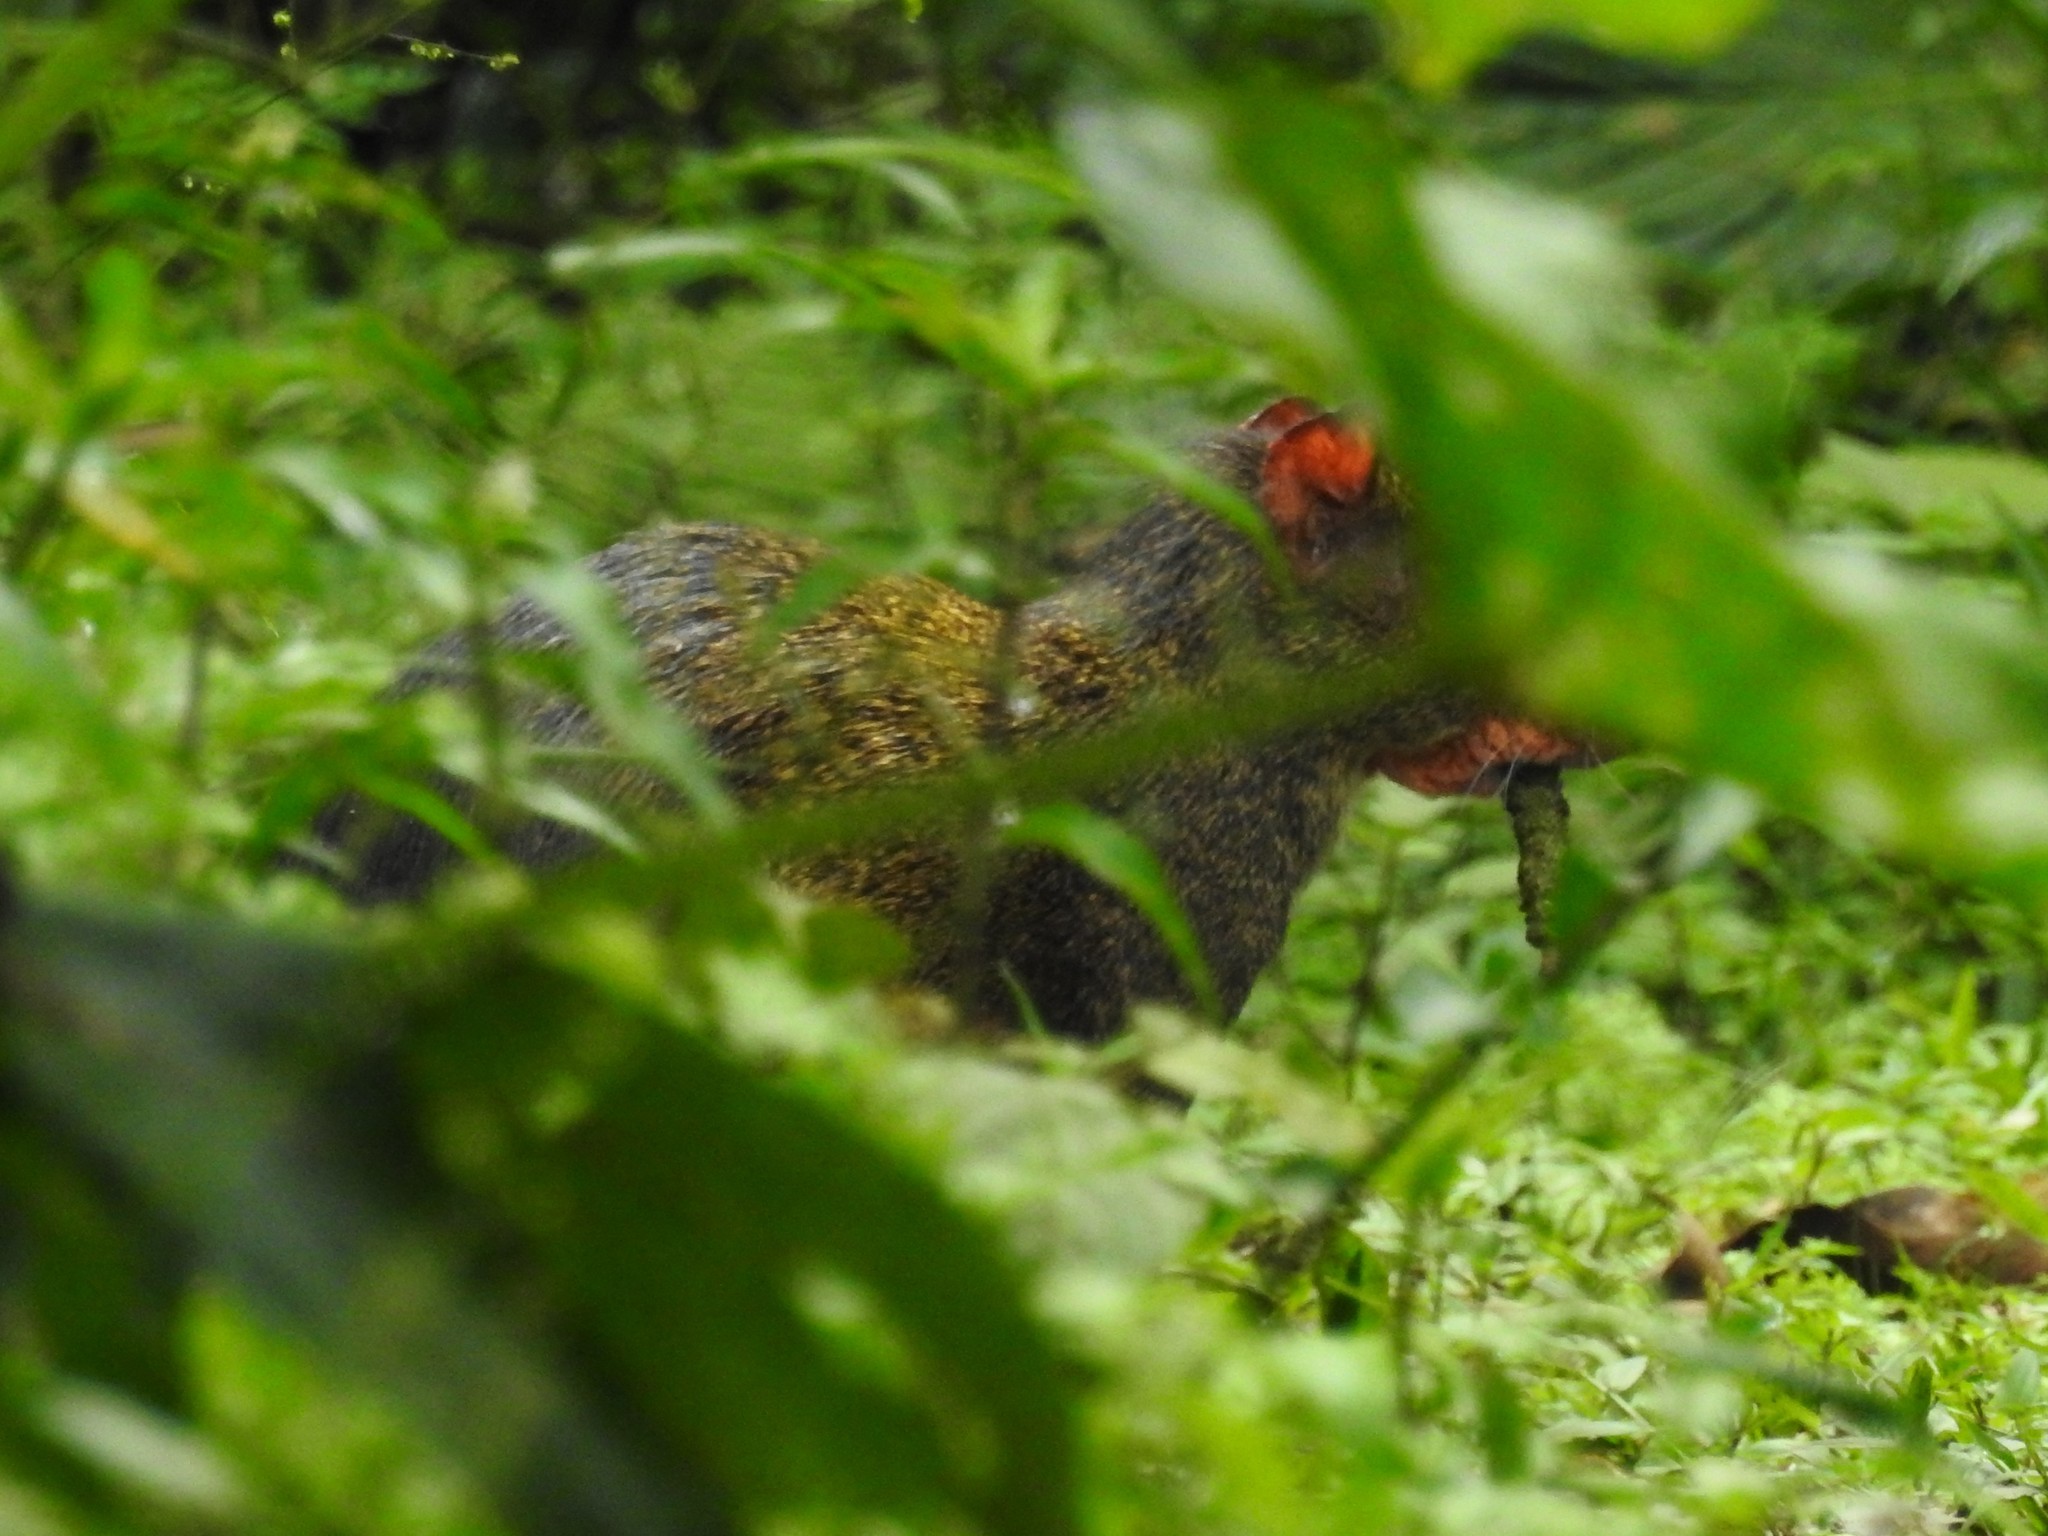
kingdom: Animalia
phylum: Chordata
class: Mammalia
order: Rodentia
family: Dasyproctidae
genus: Dasyprocta
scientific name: Dasyprocta punctata
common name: Central american agouti
